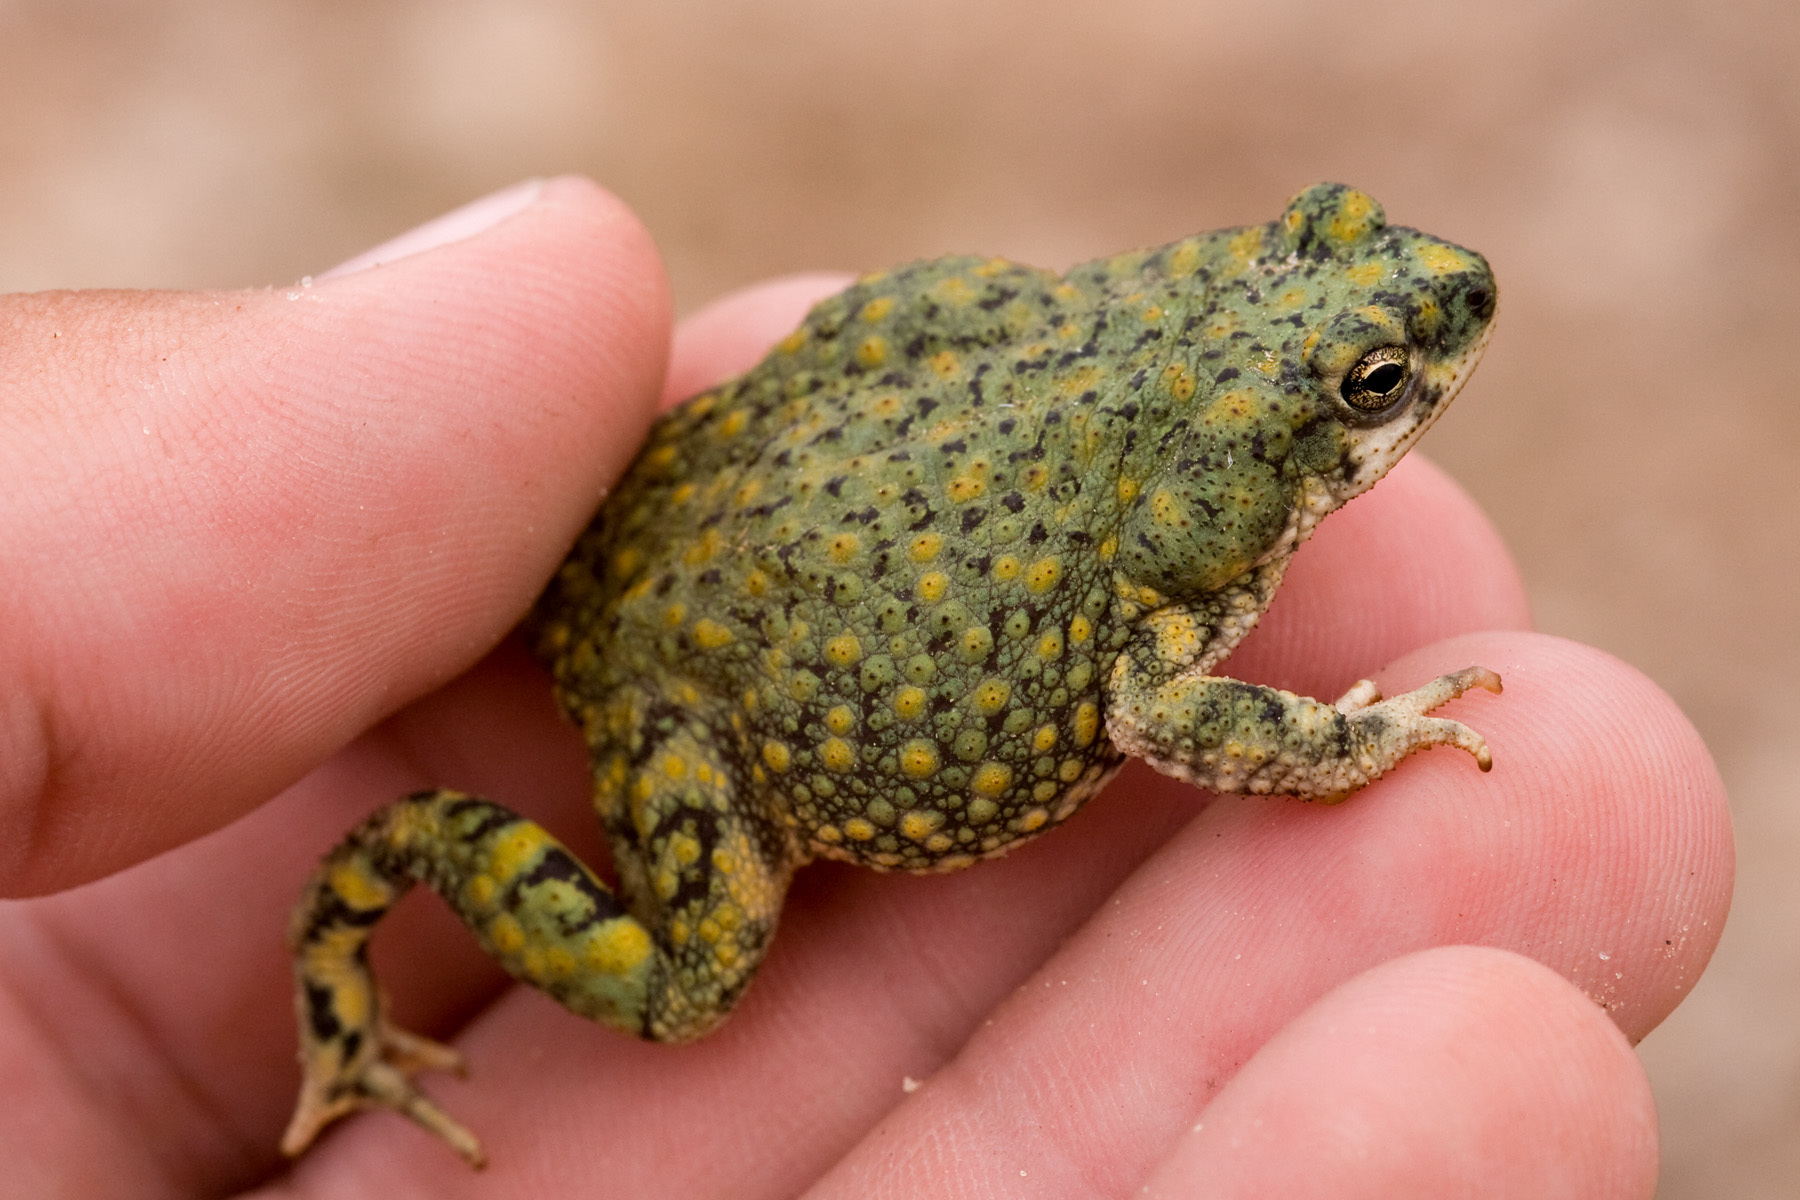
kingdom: Animalia
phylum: Chordata
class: Amphibia
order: Anura
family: Bufonidae
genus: Anaxyrus
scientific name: Anaxyrus debilis
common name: Green toad
